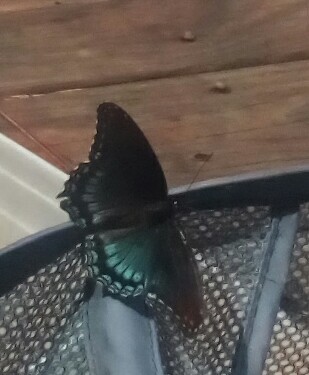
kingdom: Animalia
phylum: Arthropoda
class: Insecta
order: Lepidoptera
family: Nymphalidae
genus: Limenitis
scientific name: Limenitis astyanax
